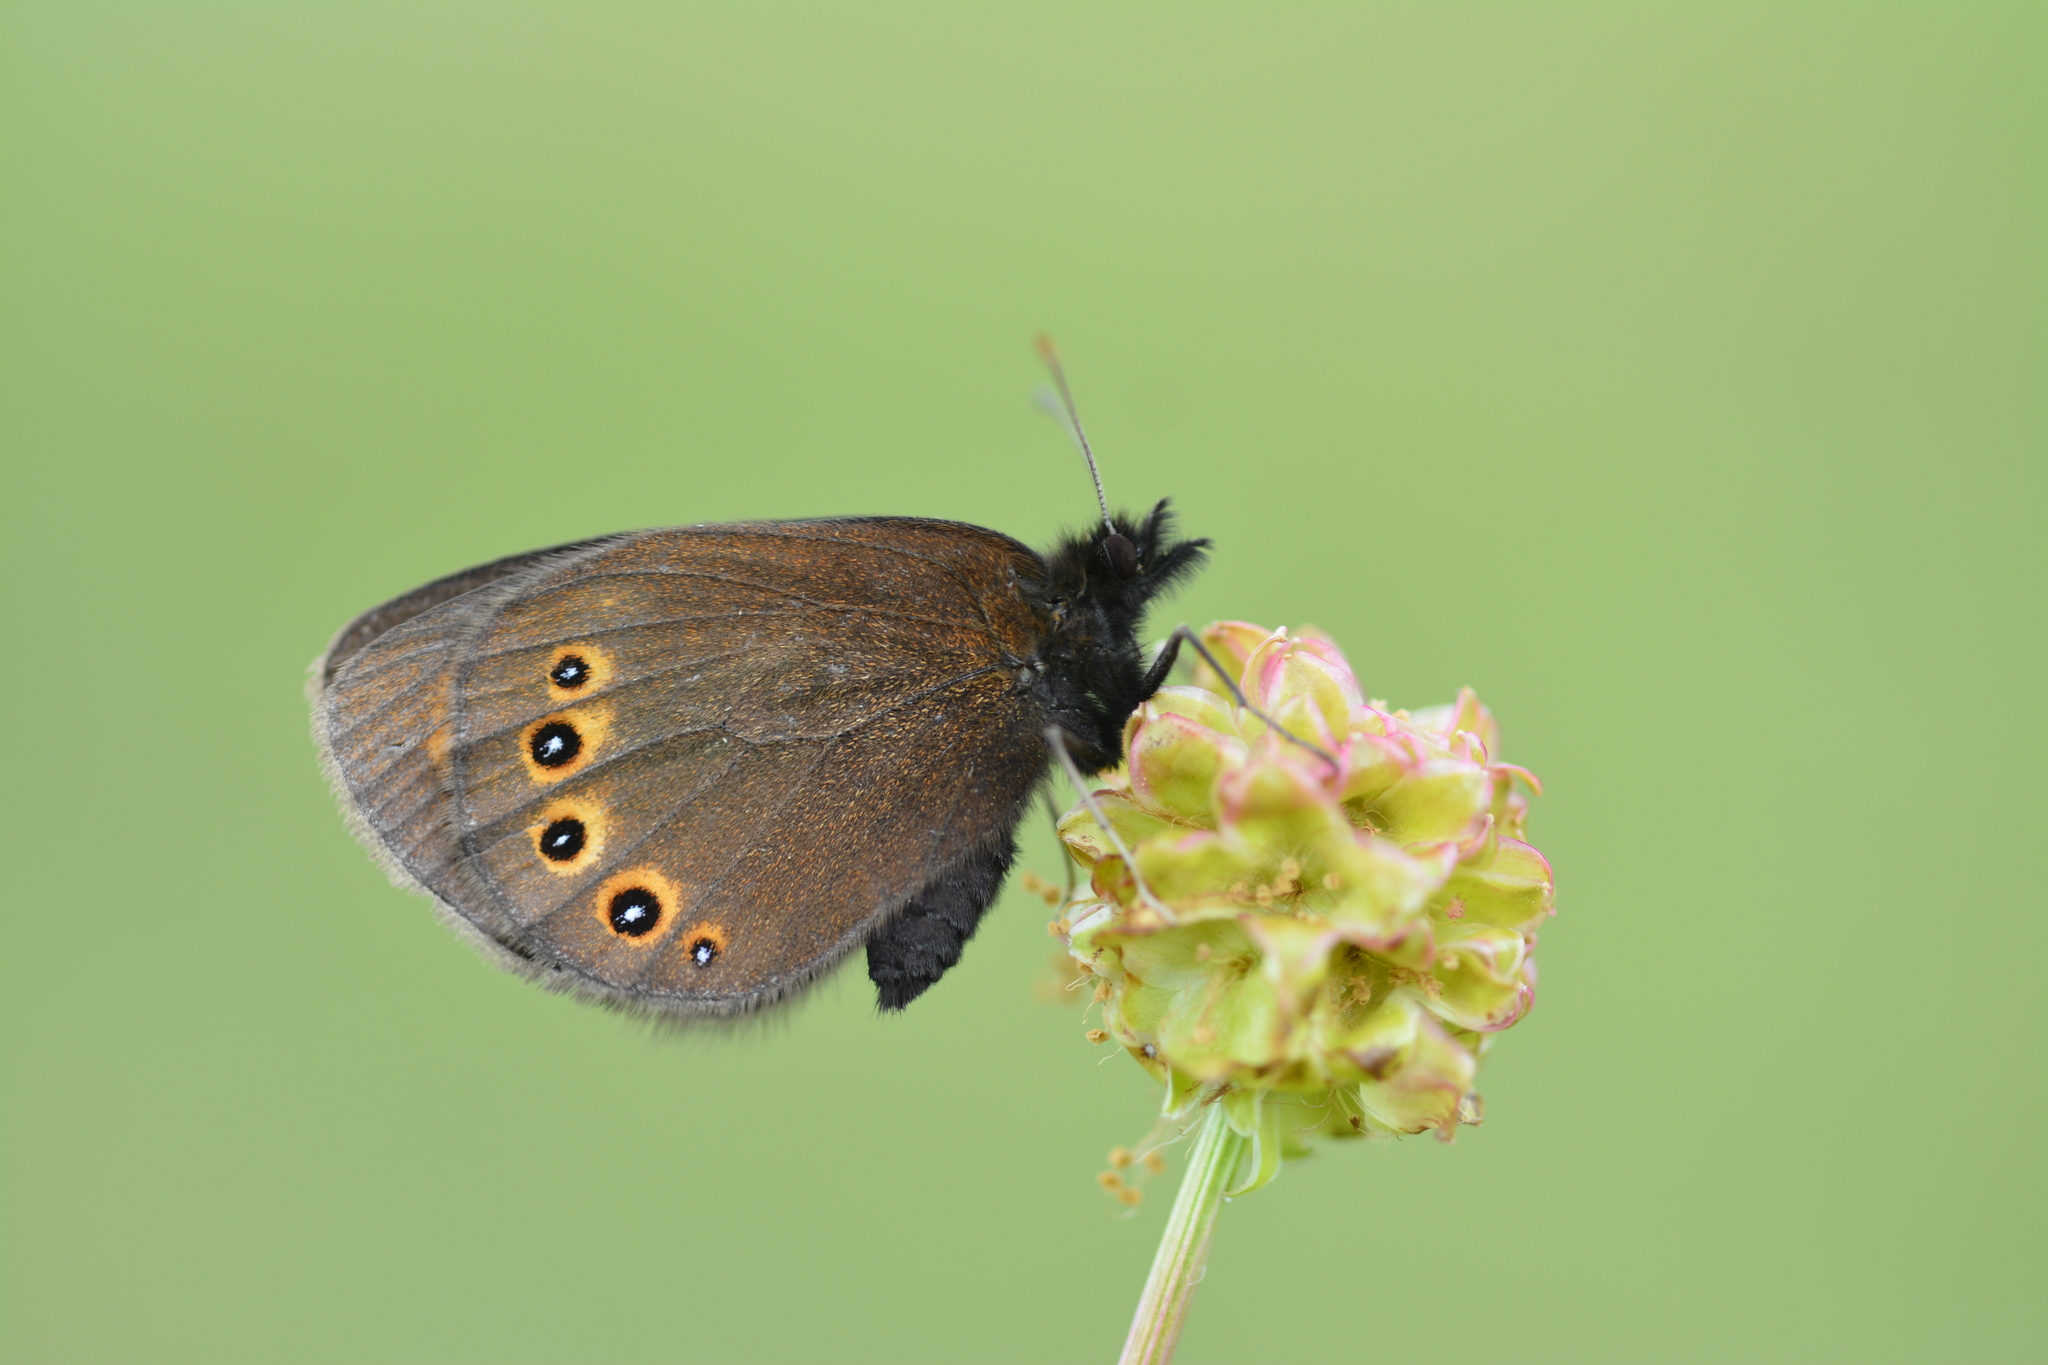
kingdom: Animalia
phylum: Arthropoda
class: Insecta
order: Lepidoptera
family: Nymphalidae
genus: Erebia
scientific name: Erebia medusa
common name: Woodland ringlet
